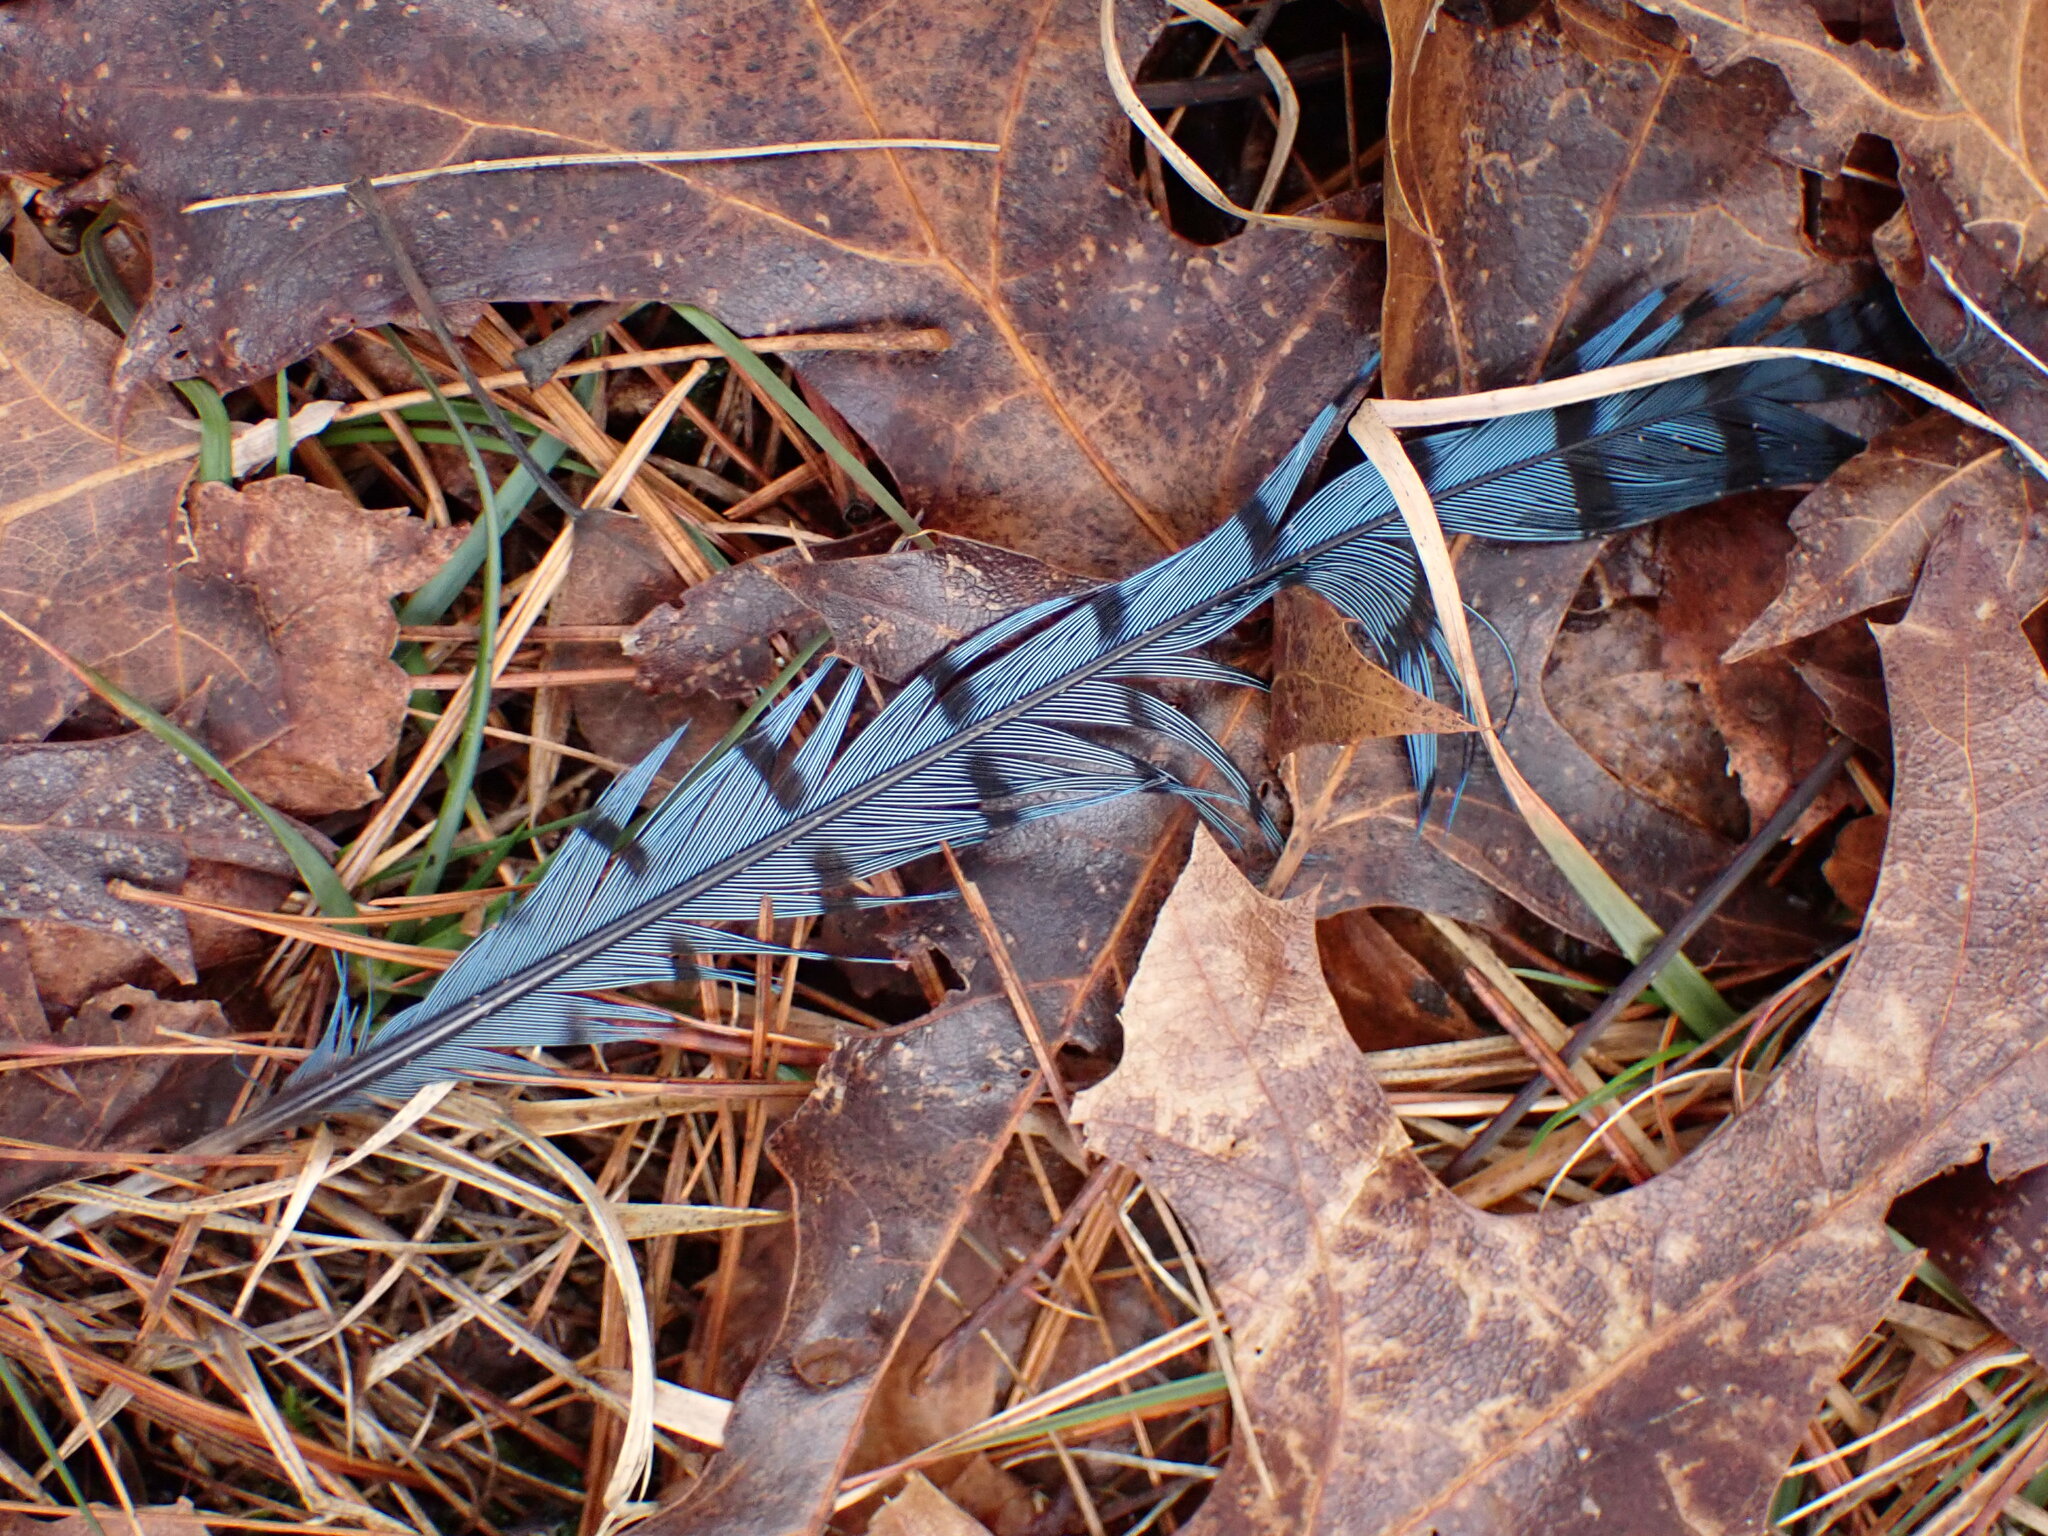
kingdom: Animalia
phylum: Chordata
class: Aves
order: Passeriformes
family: Corvidae
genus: Cyanocitta
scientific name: Cyanocitta cristata
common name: Blue jay
